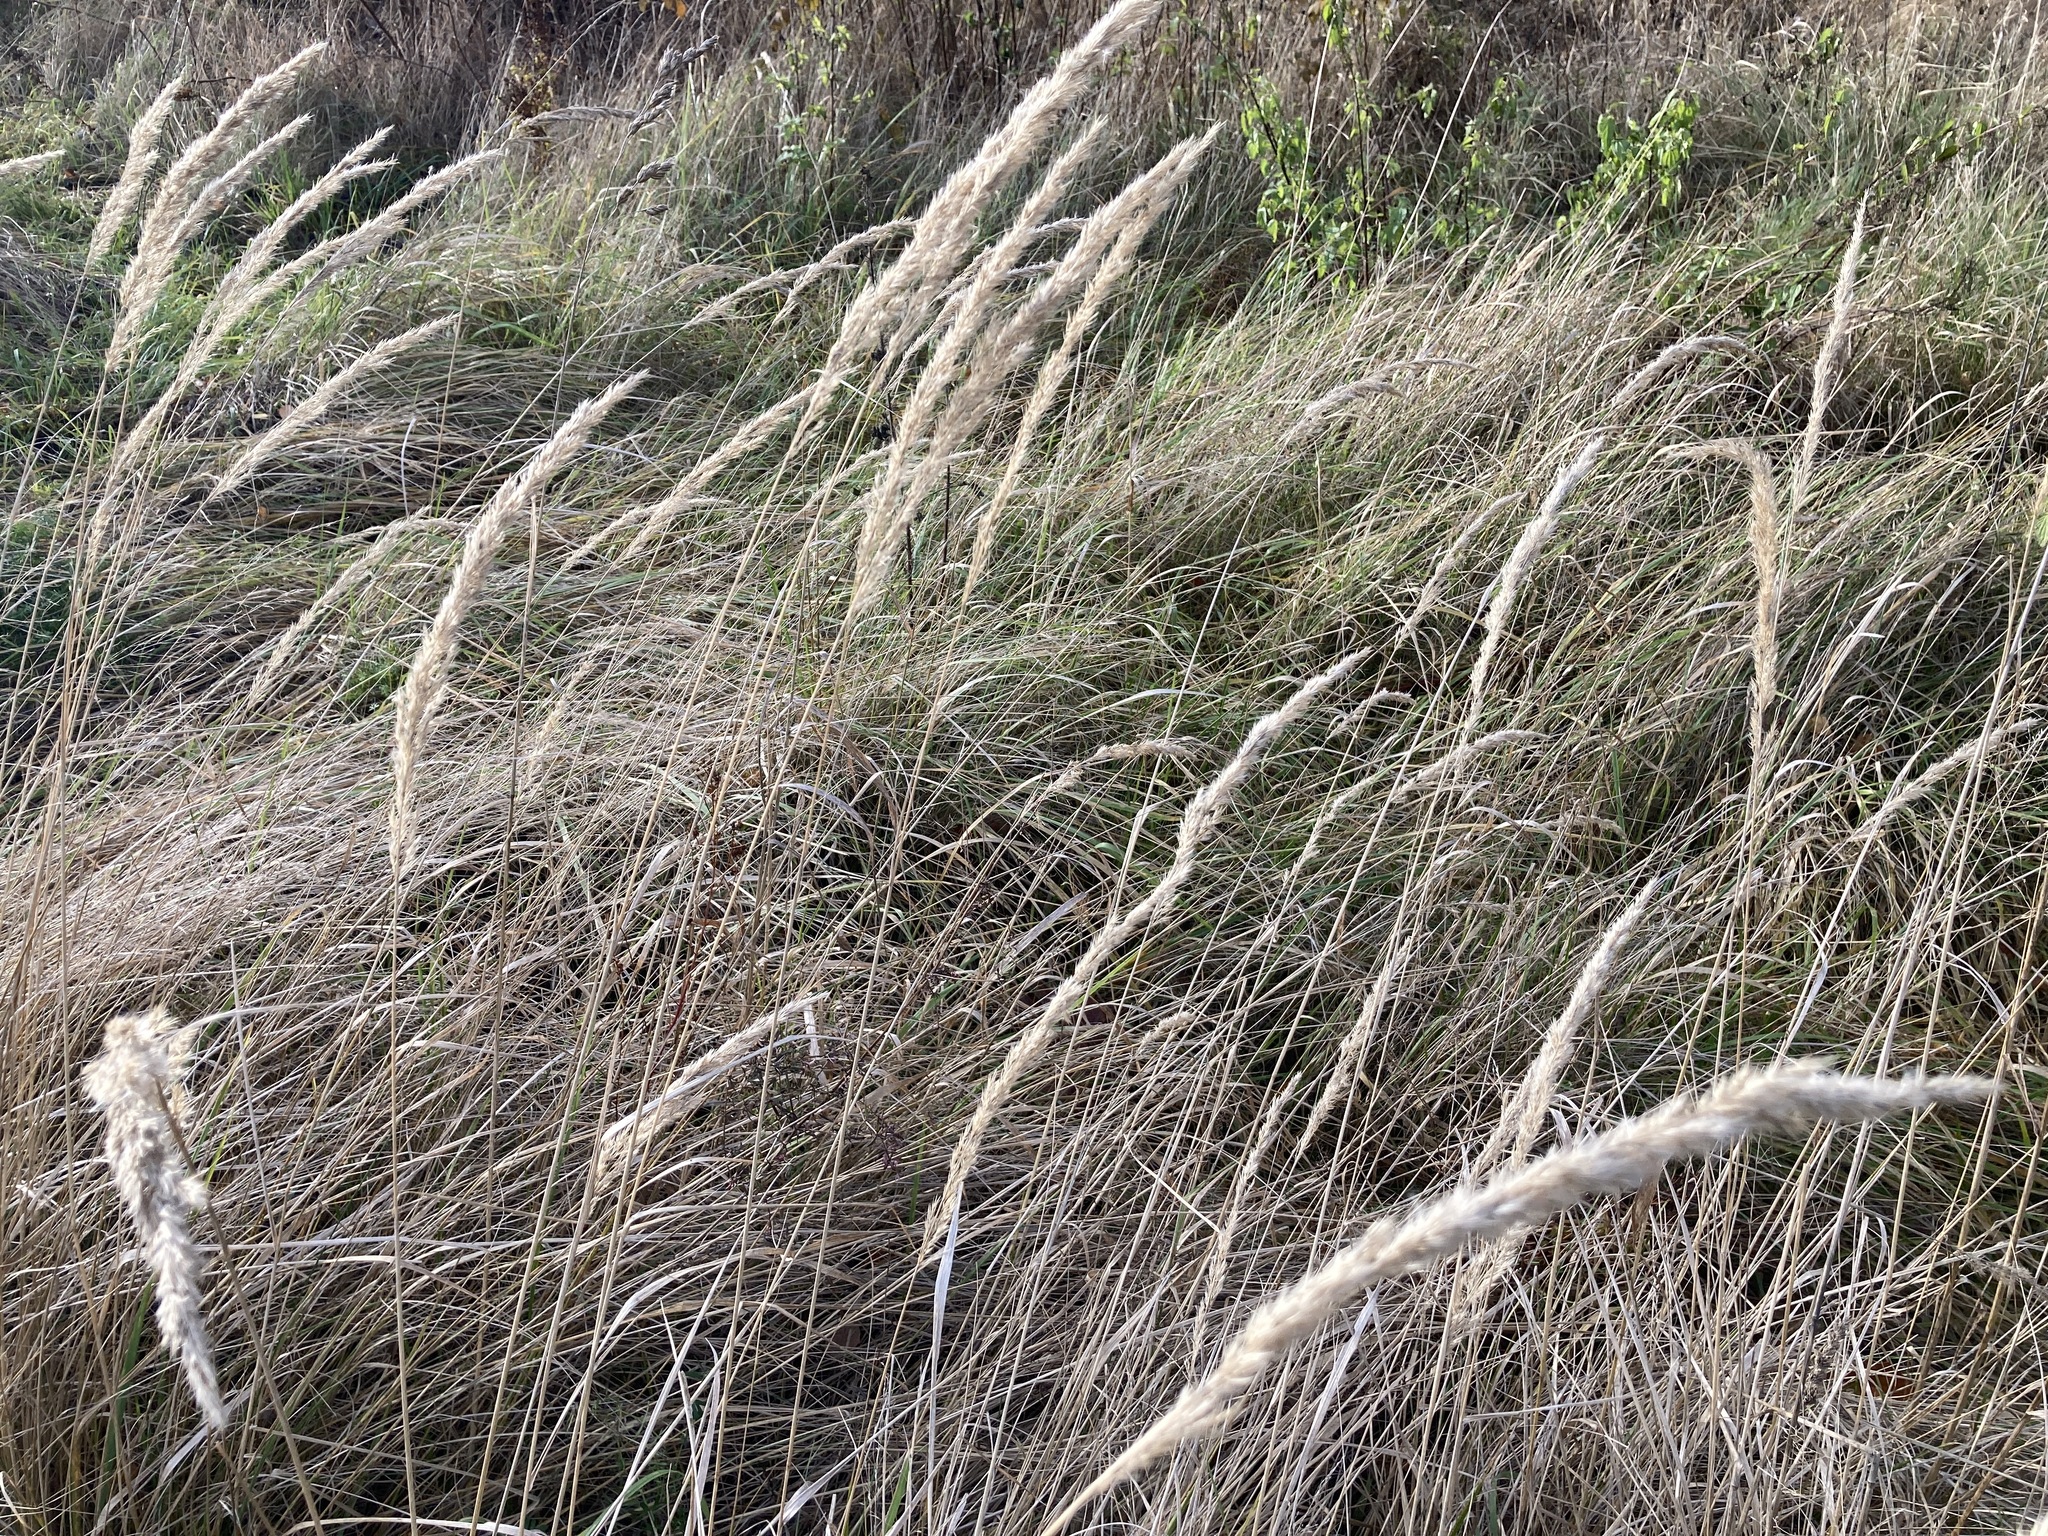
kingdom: Plantae
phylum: Tracheophyta
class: Liliopsida
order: Poales
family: Poaceae
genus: Calamagrostis
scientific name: Calamagrostis epigejos
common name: Wood small-reed
